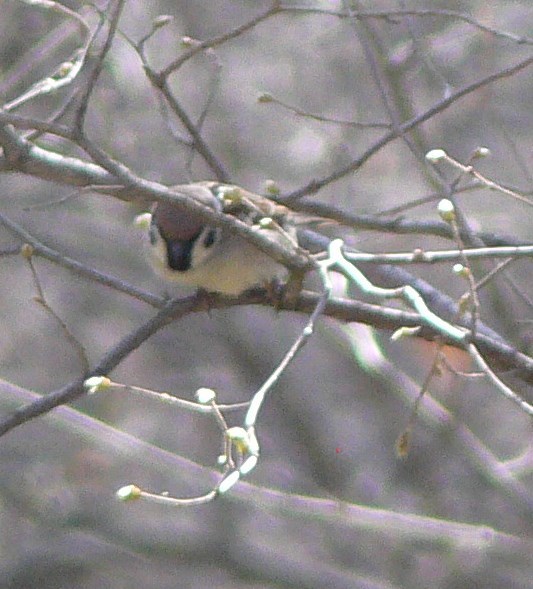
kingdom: Animalia
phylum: Chordata
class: Aves
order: Passeriformes
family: Passeridae
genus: Passer
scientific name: Passer montanus
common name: Eurasian tree sparrow
